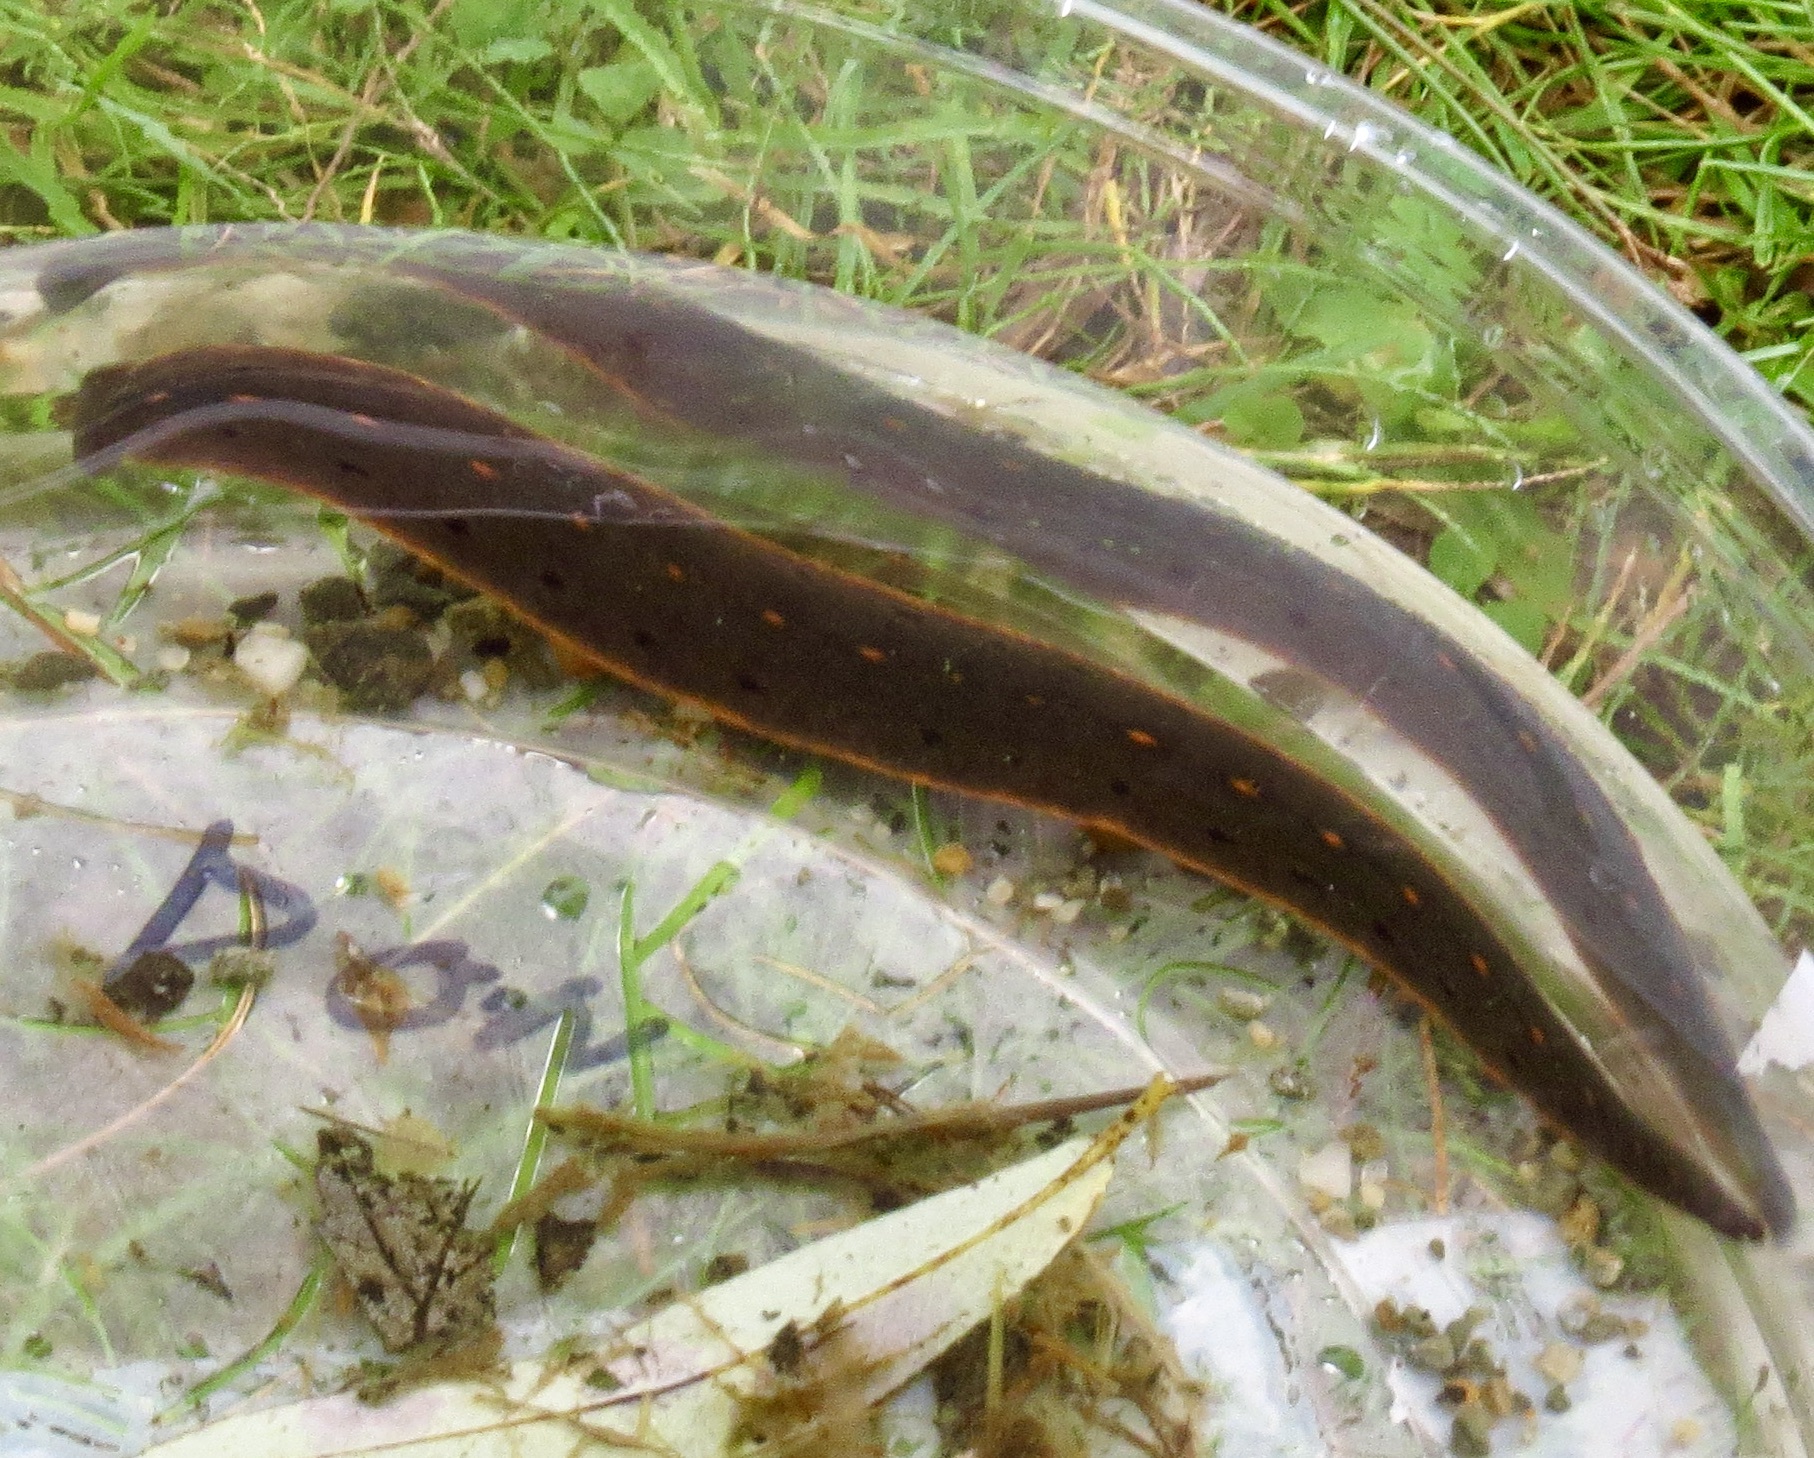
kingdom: Animalia
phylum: Annelida
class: Clitellata
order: Arhynchobdellida
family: Hirudinidae
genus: Macrobdella
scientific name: Macrobdella decora
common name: North american leech
